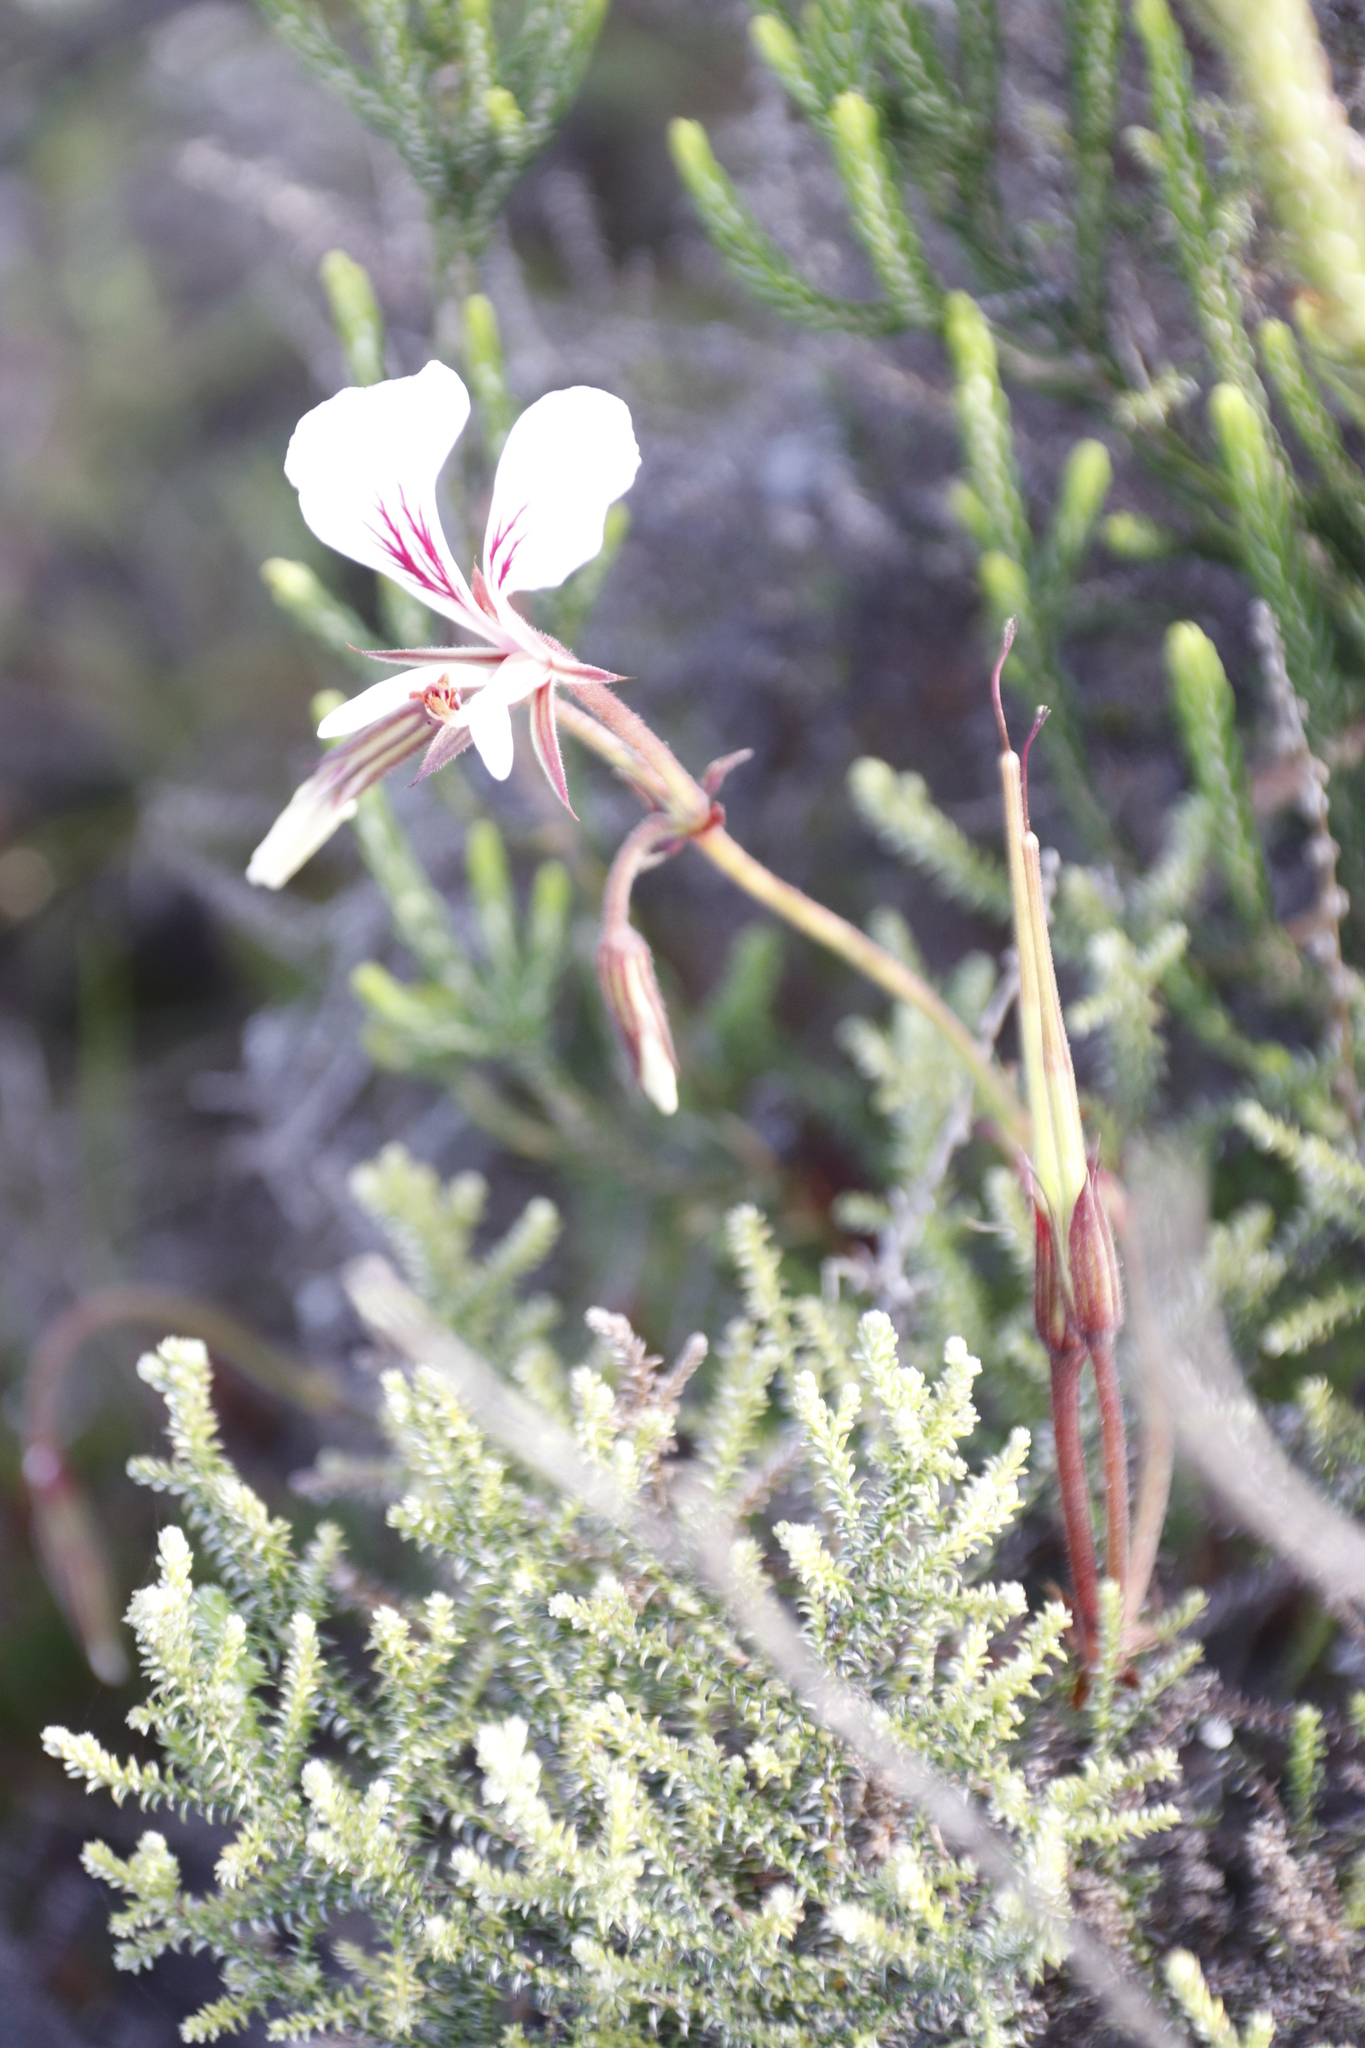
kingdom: Plantae
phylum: Tracheophyta
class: Magnoliopsida
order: Geraniales
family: Geraniaceae
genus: Pelargonium
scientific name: Pelargonium longicaule
